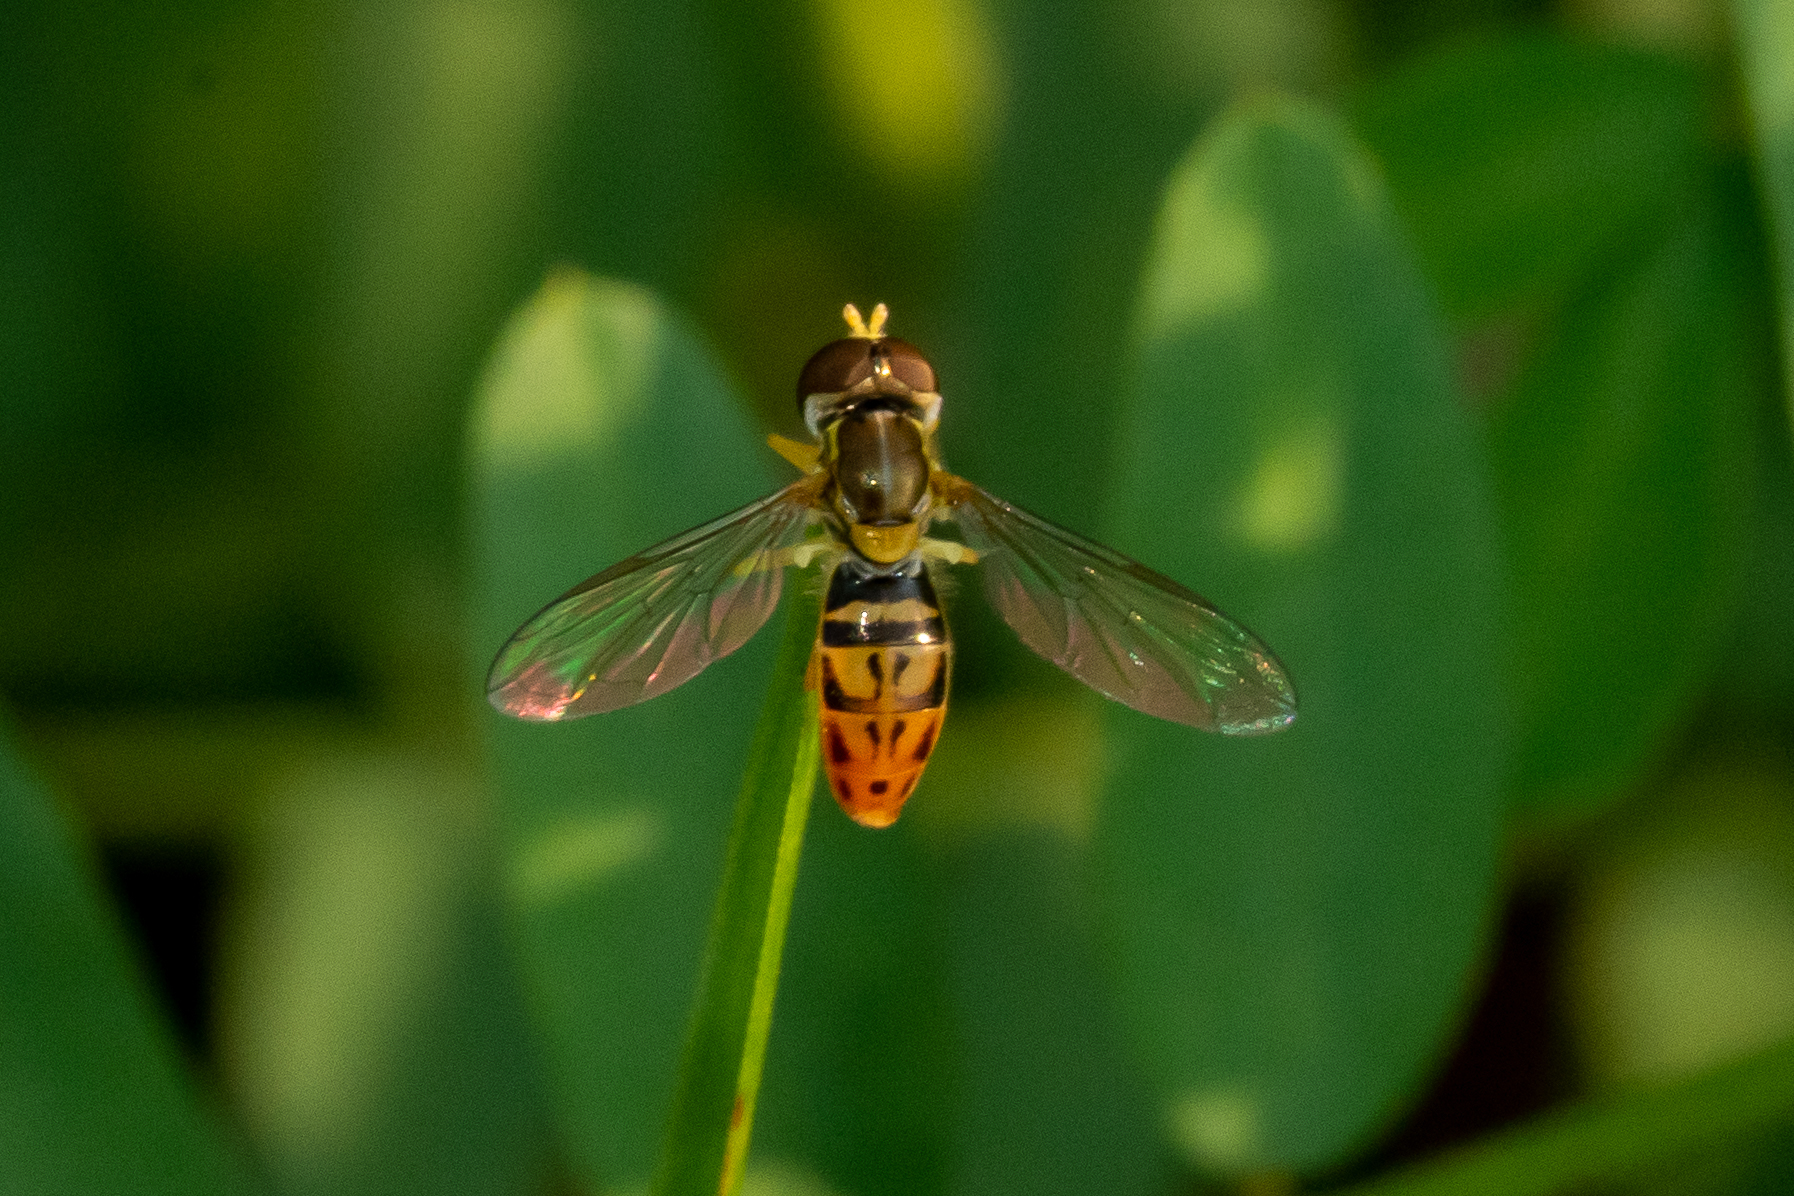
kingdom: Animalia
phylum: Arthropoda
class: Insecta
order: Diptera
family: Syrphidae
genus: Toxomerus
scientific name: Toxomerus marginatus
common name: Syrphid fly
